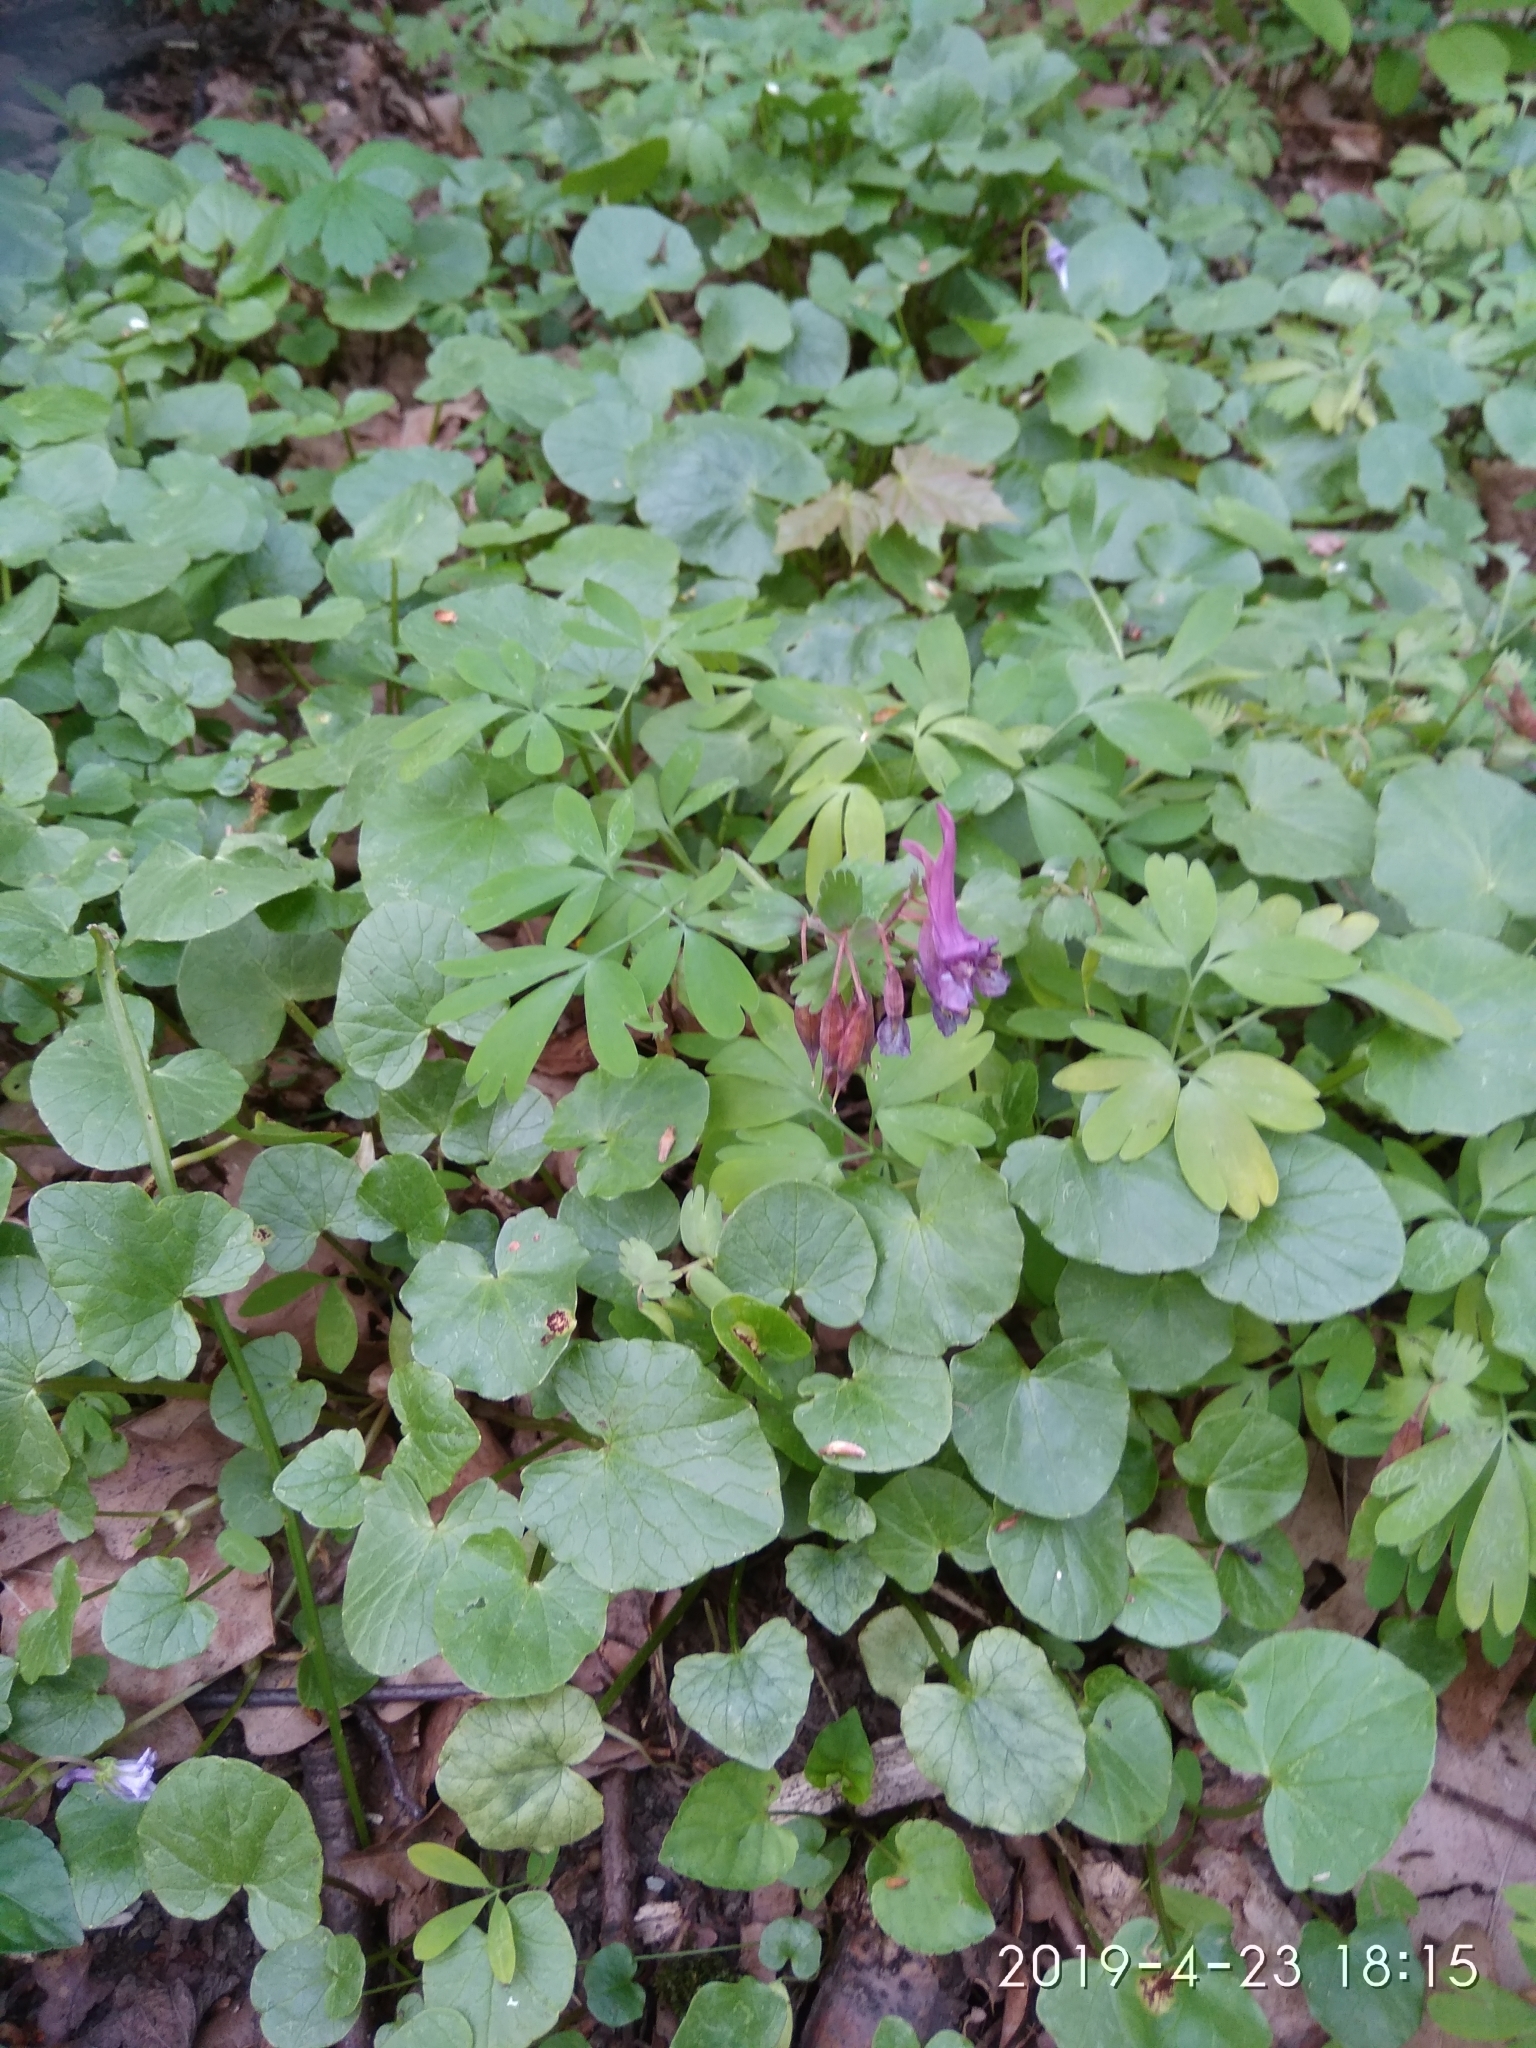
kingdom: Plantae
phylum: Tracheophyta
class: Magnoliopsida
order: Ranunculales
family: Papaveraceae
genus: Corydalis
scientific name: Corydalis solida
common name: Bird-in-a-bush
